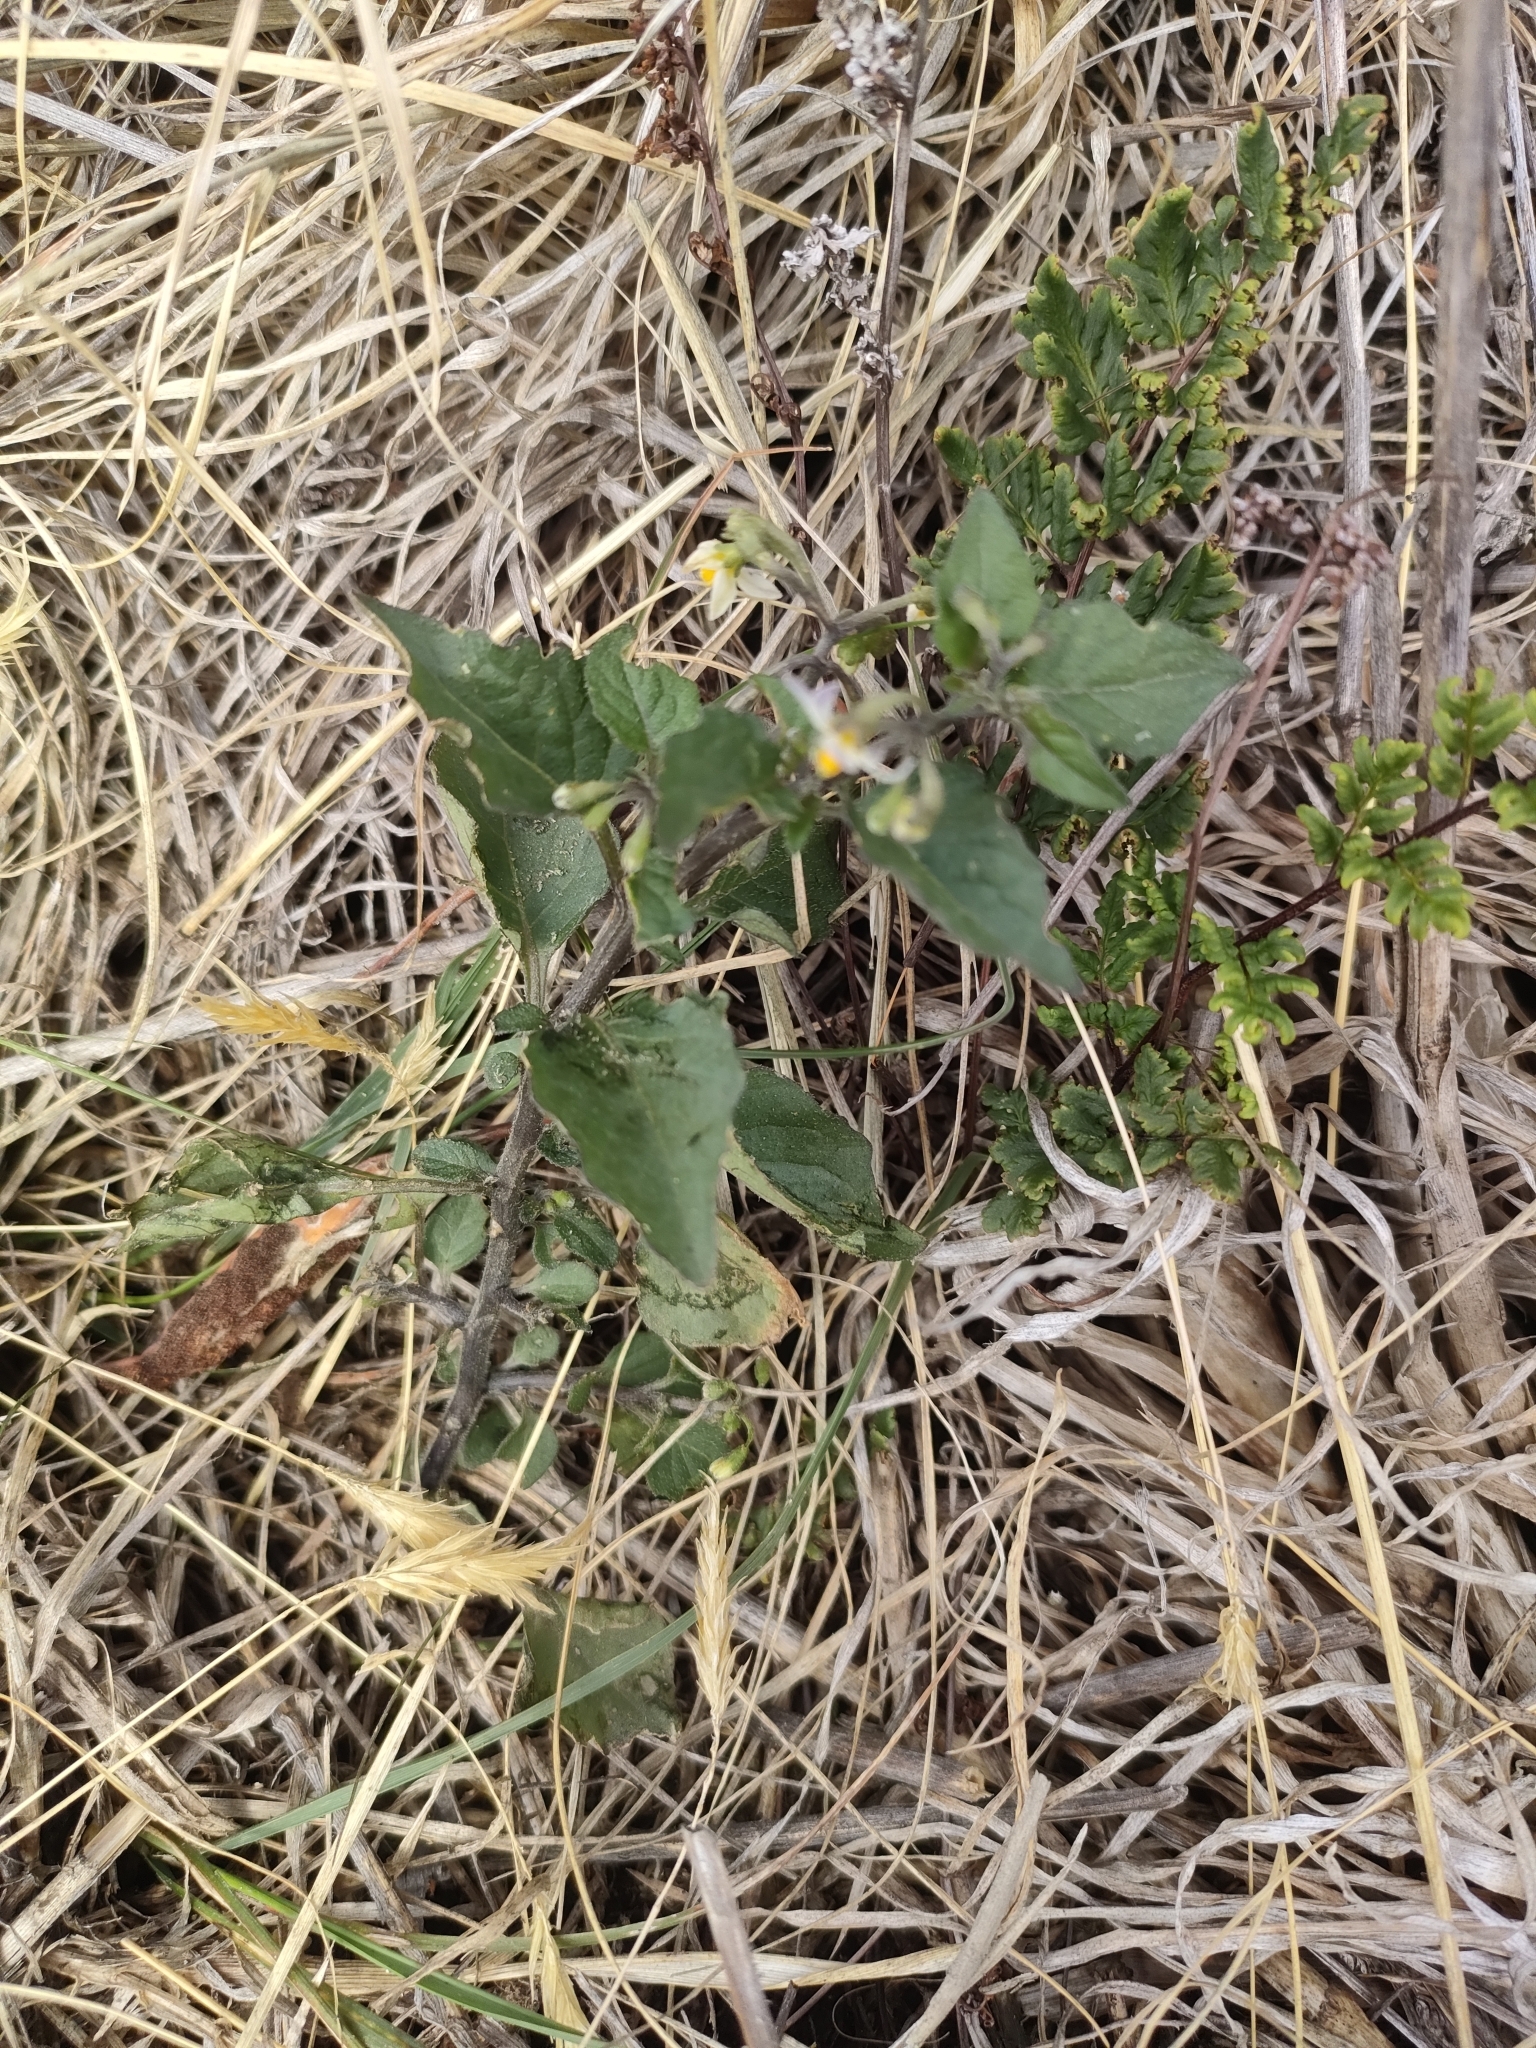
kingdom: Plantae
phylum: Tracheophyta
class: Magnoliopsida
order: Solanales
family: Solanaceae
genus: Solanum
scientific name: Solanum nigrum
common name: Black nightshade
